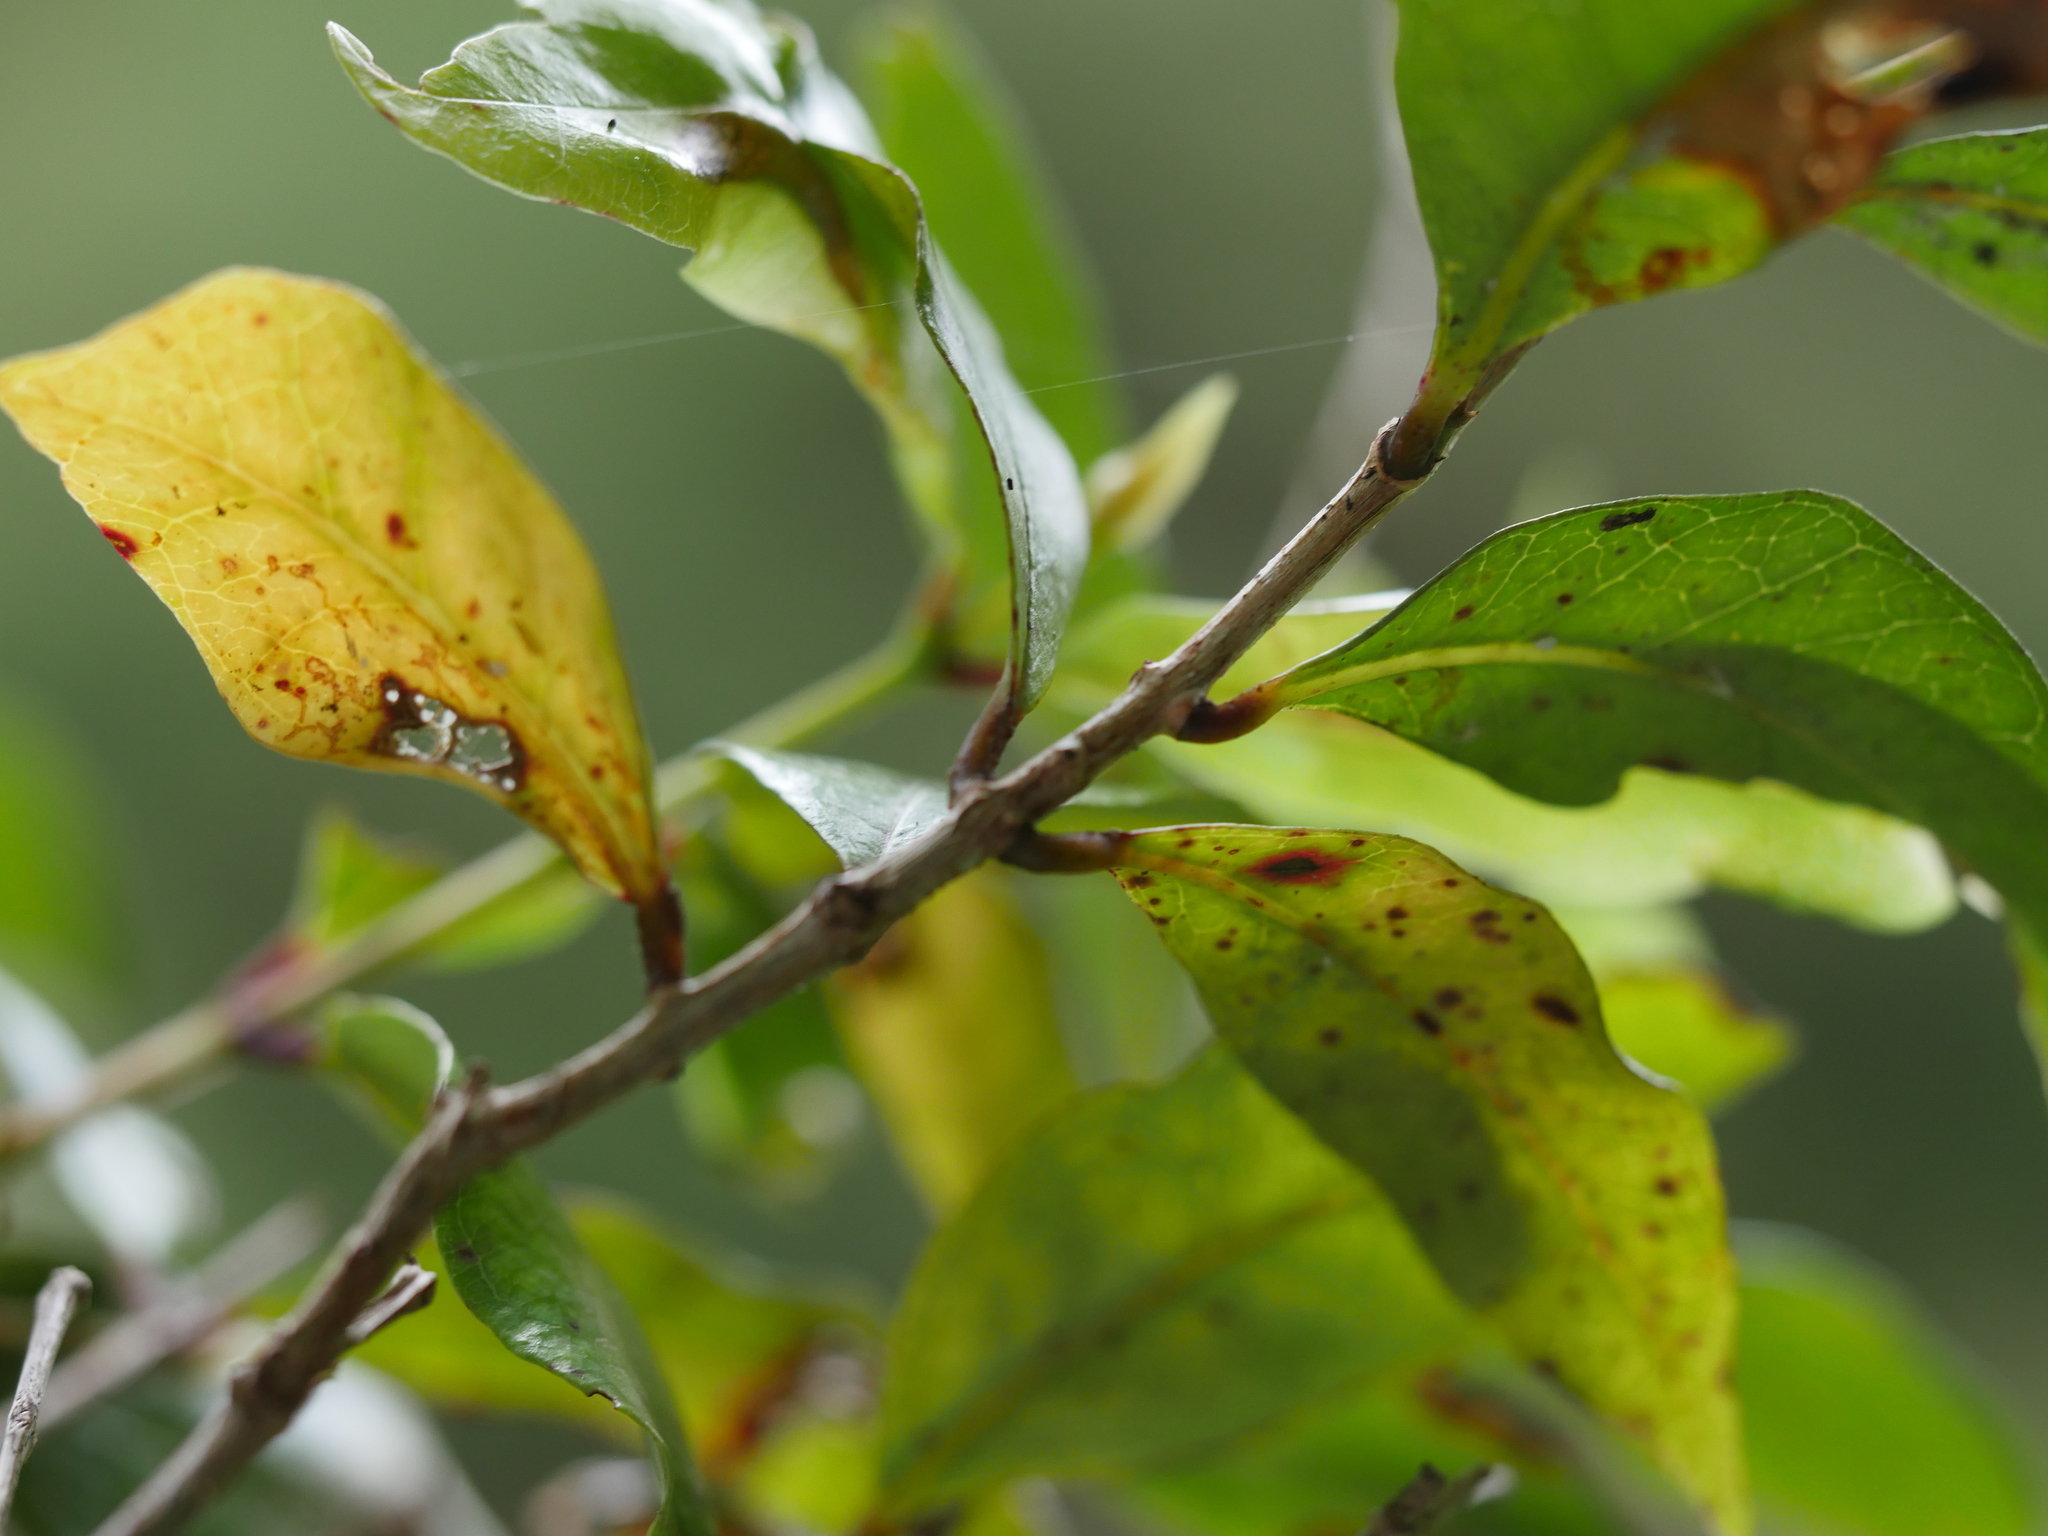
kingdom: Plantae
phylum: Tracheophyta
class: Magnoliopsida
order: Myrtales
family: Myrtaceae
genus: Syzygium
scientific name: Syzygium maire
